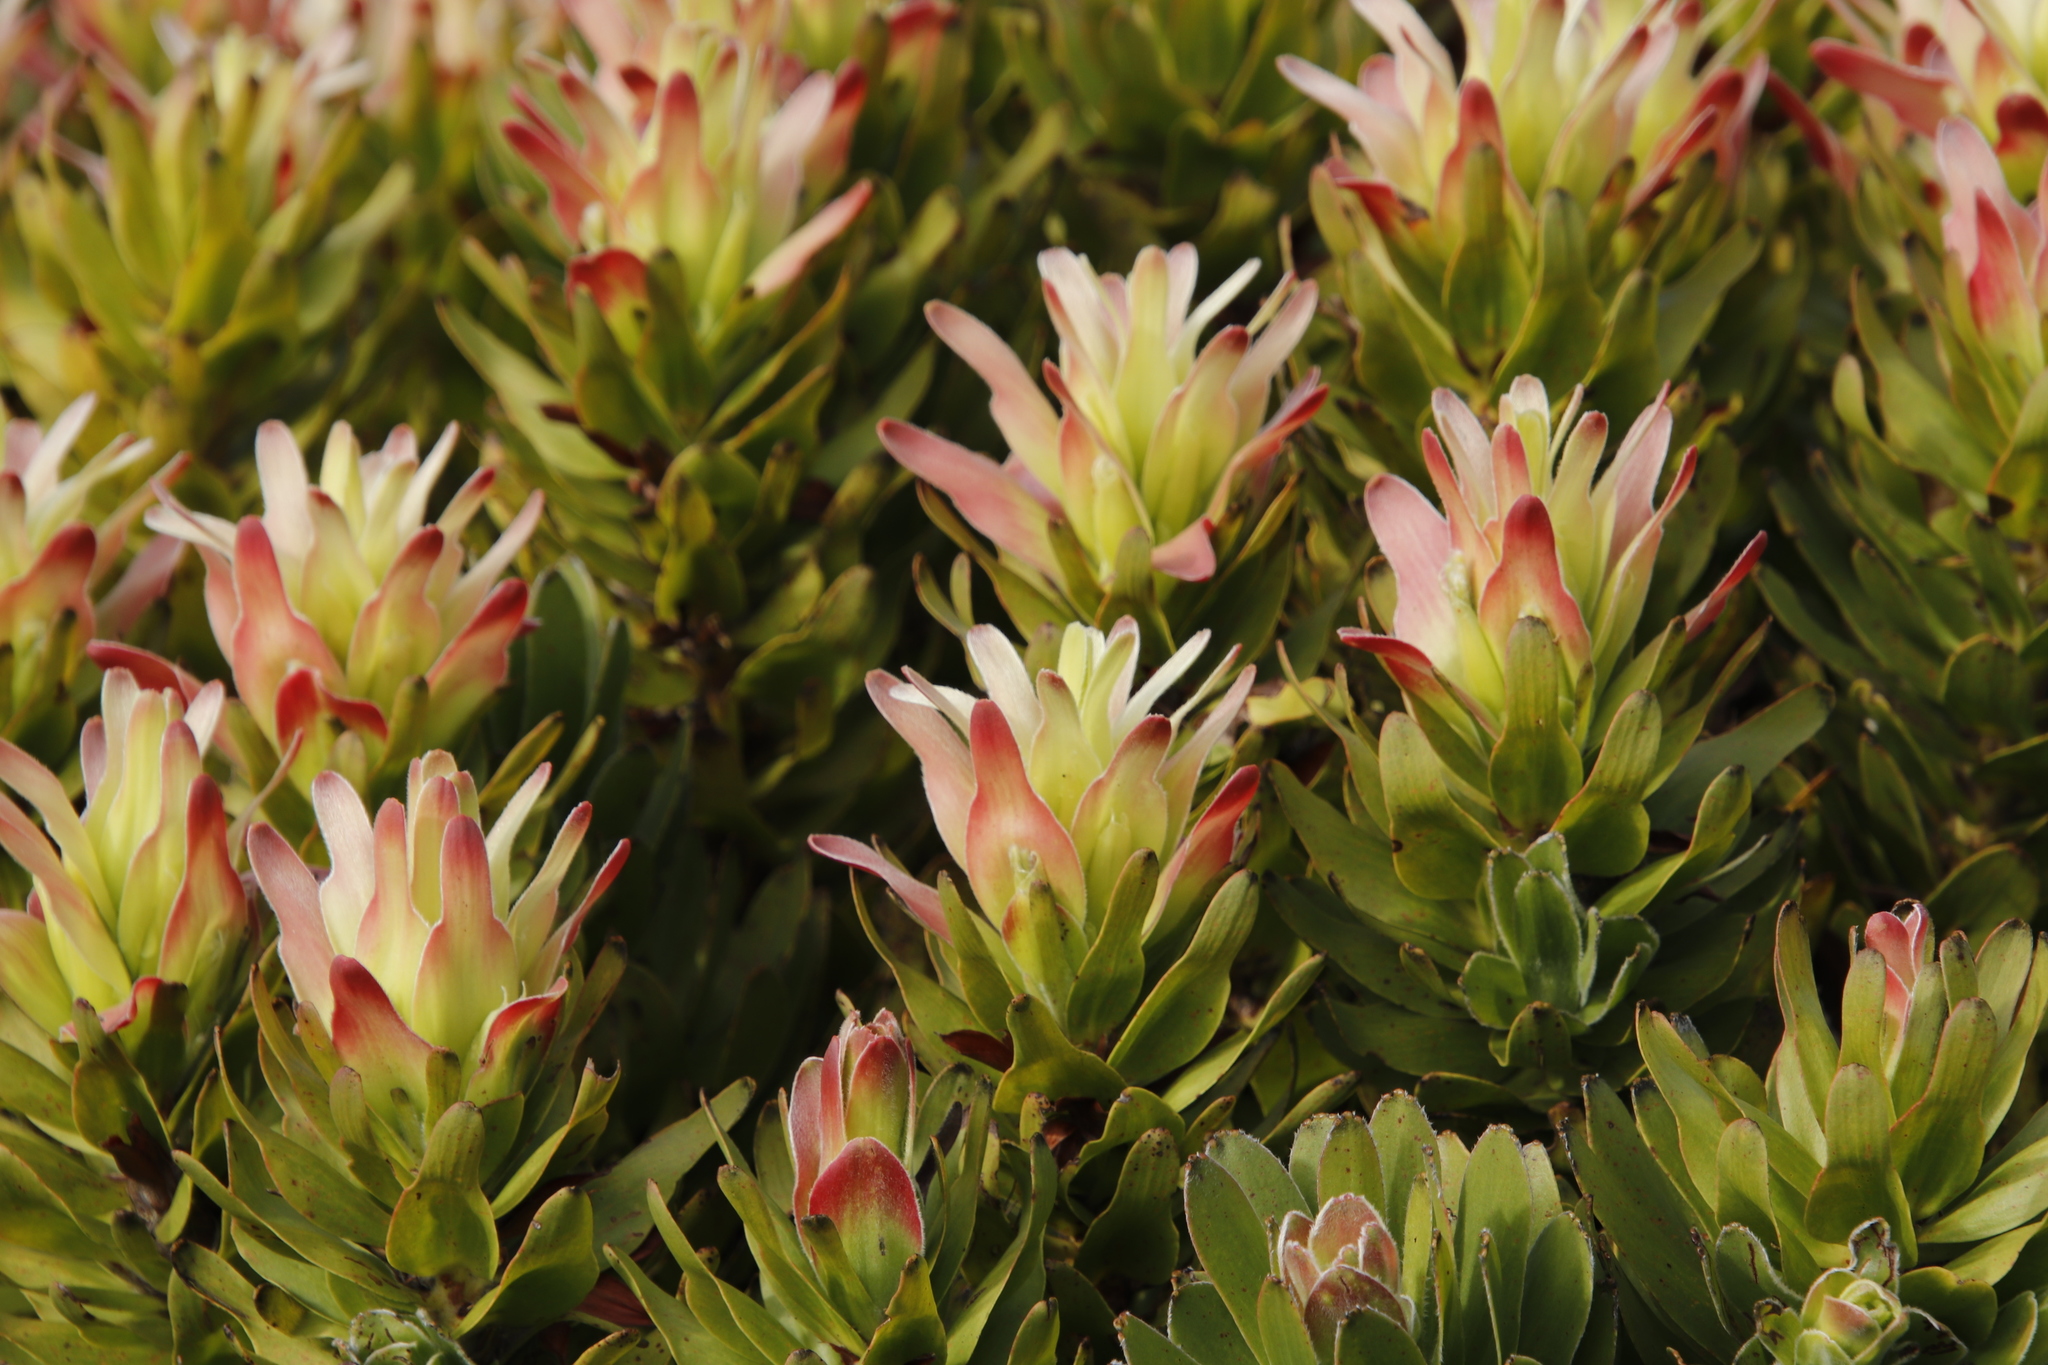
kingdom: Plantae
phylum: Tracheophyta
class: Magnoliopsida
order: Proteales
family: Proteaceae
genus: Mimetes
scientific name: Mimetes fimbriifolius
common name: Fringed bottlebrush
